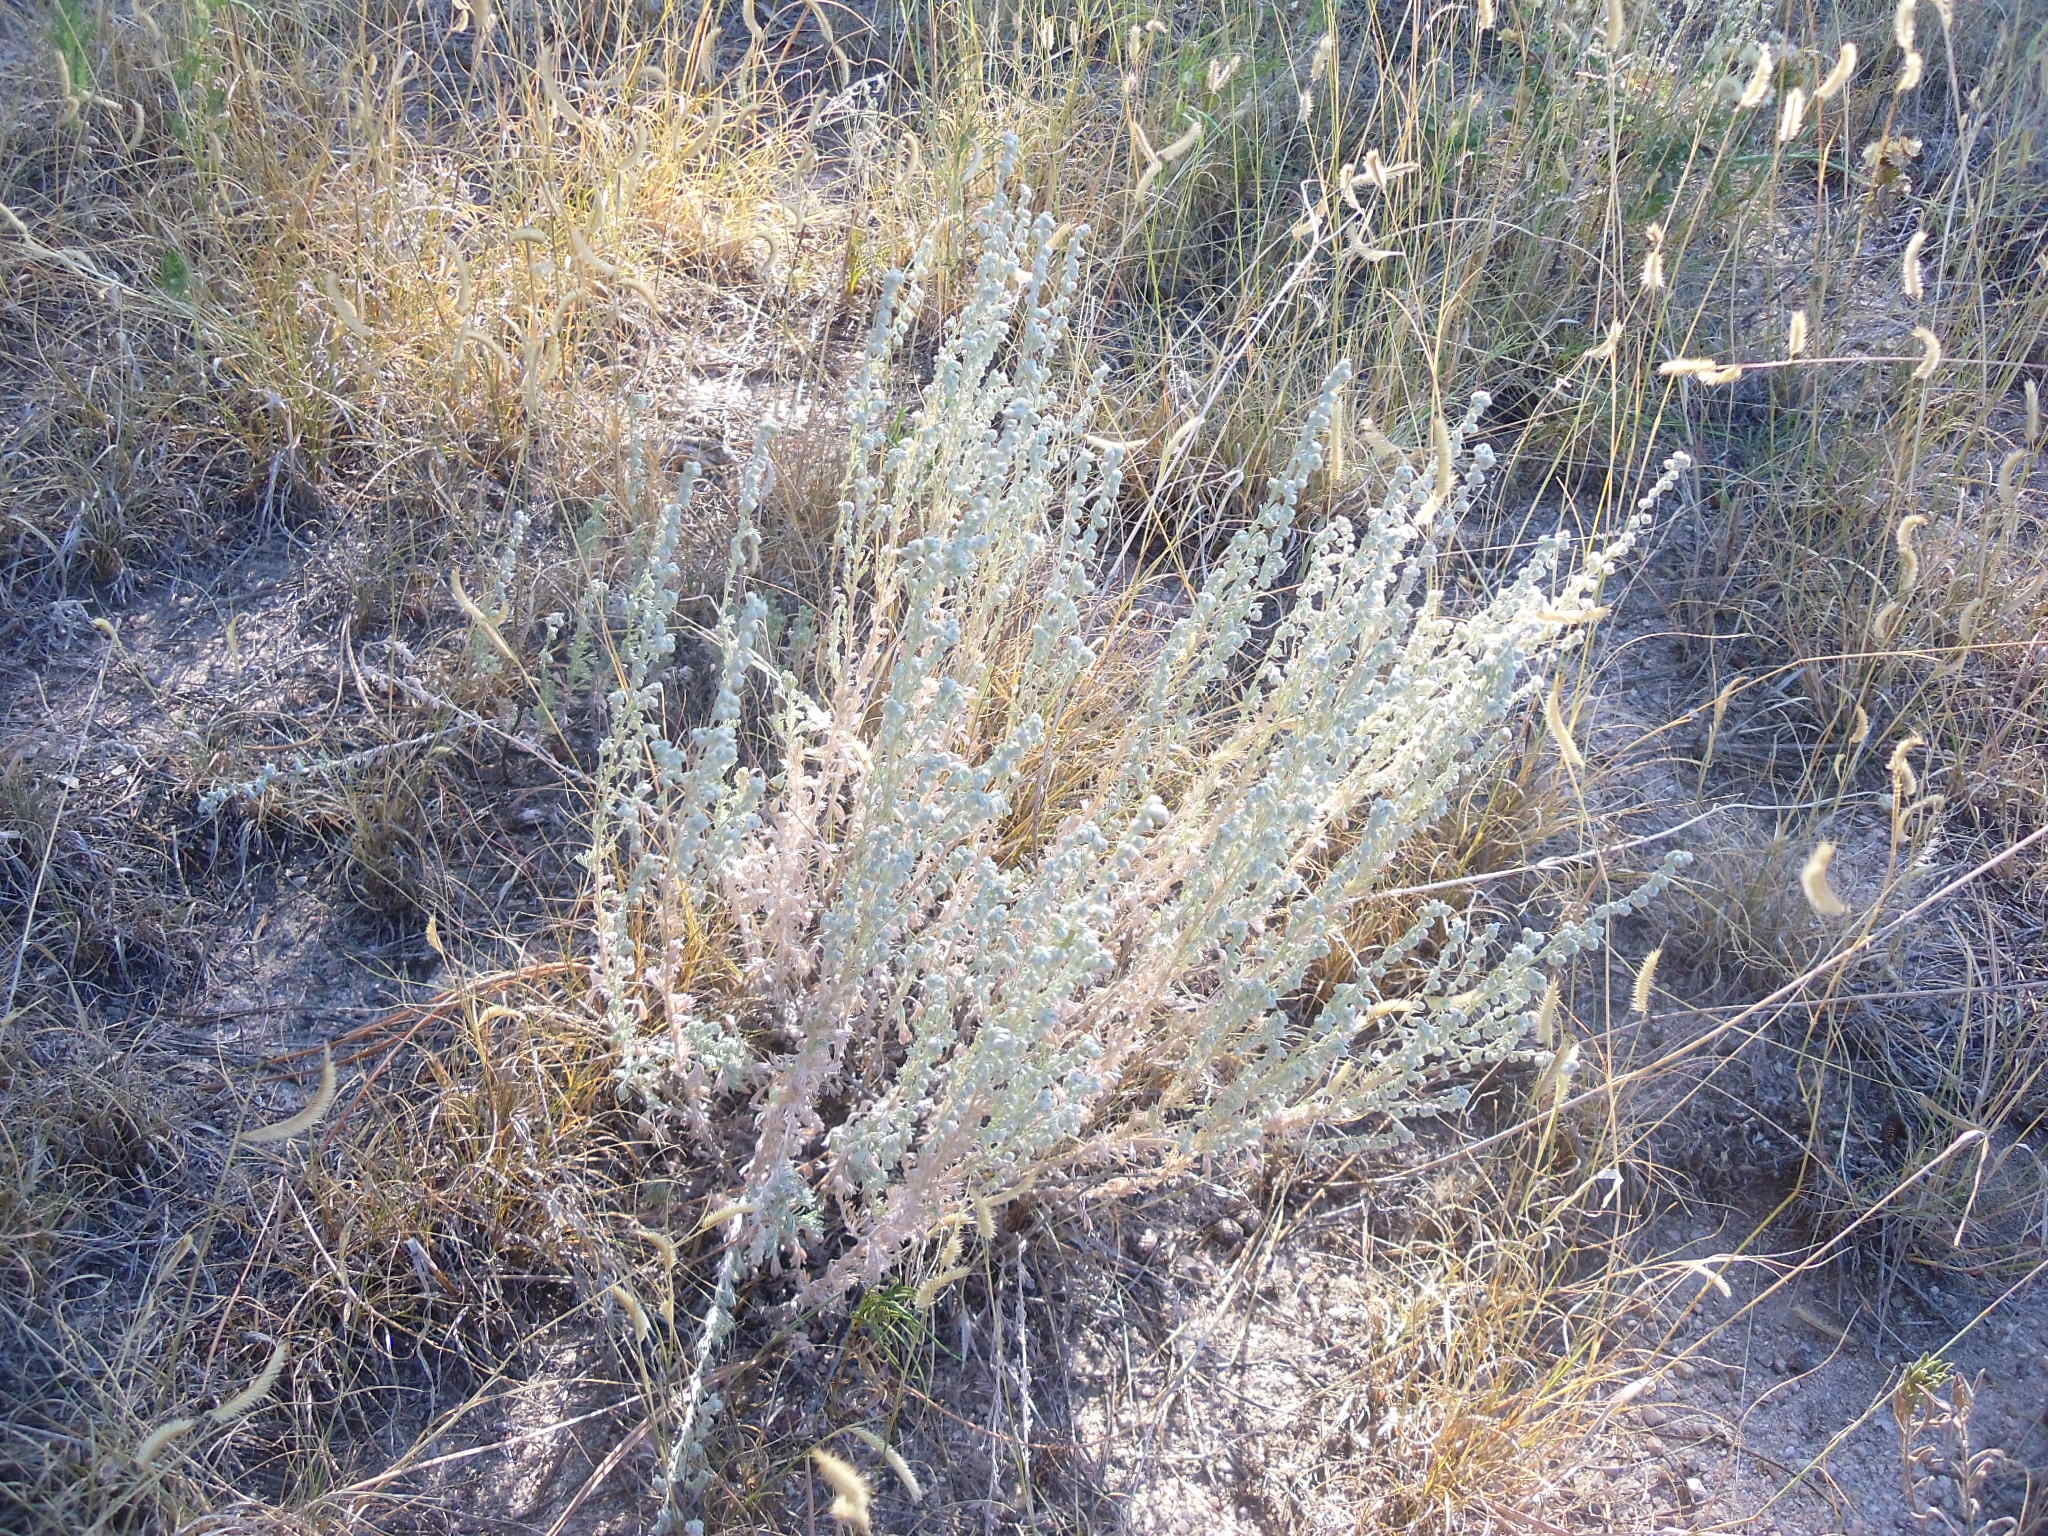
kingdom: Plantae
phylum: Tracheophyta
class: Magnoliopsida
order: Asterales
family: Asteraceae
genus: Artemisia
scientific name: Artemisia frigida
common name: Prairie sagewort
